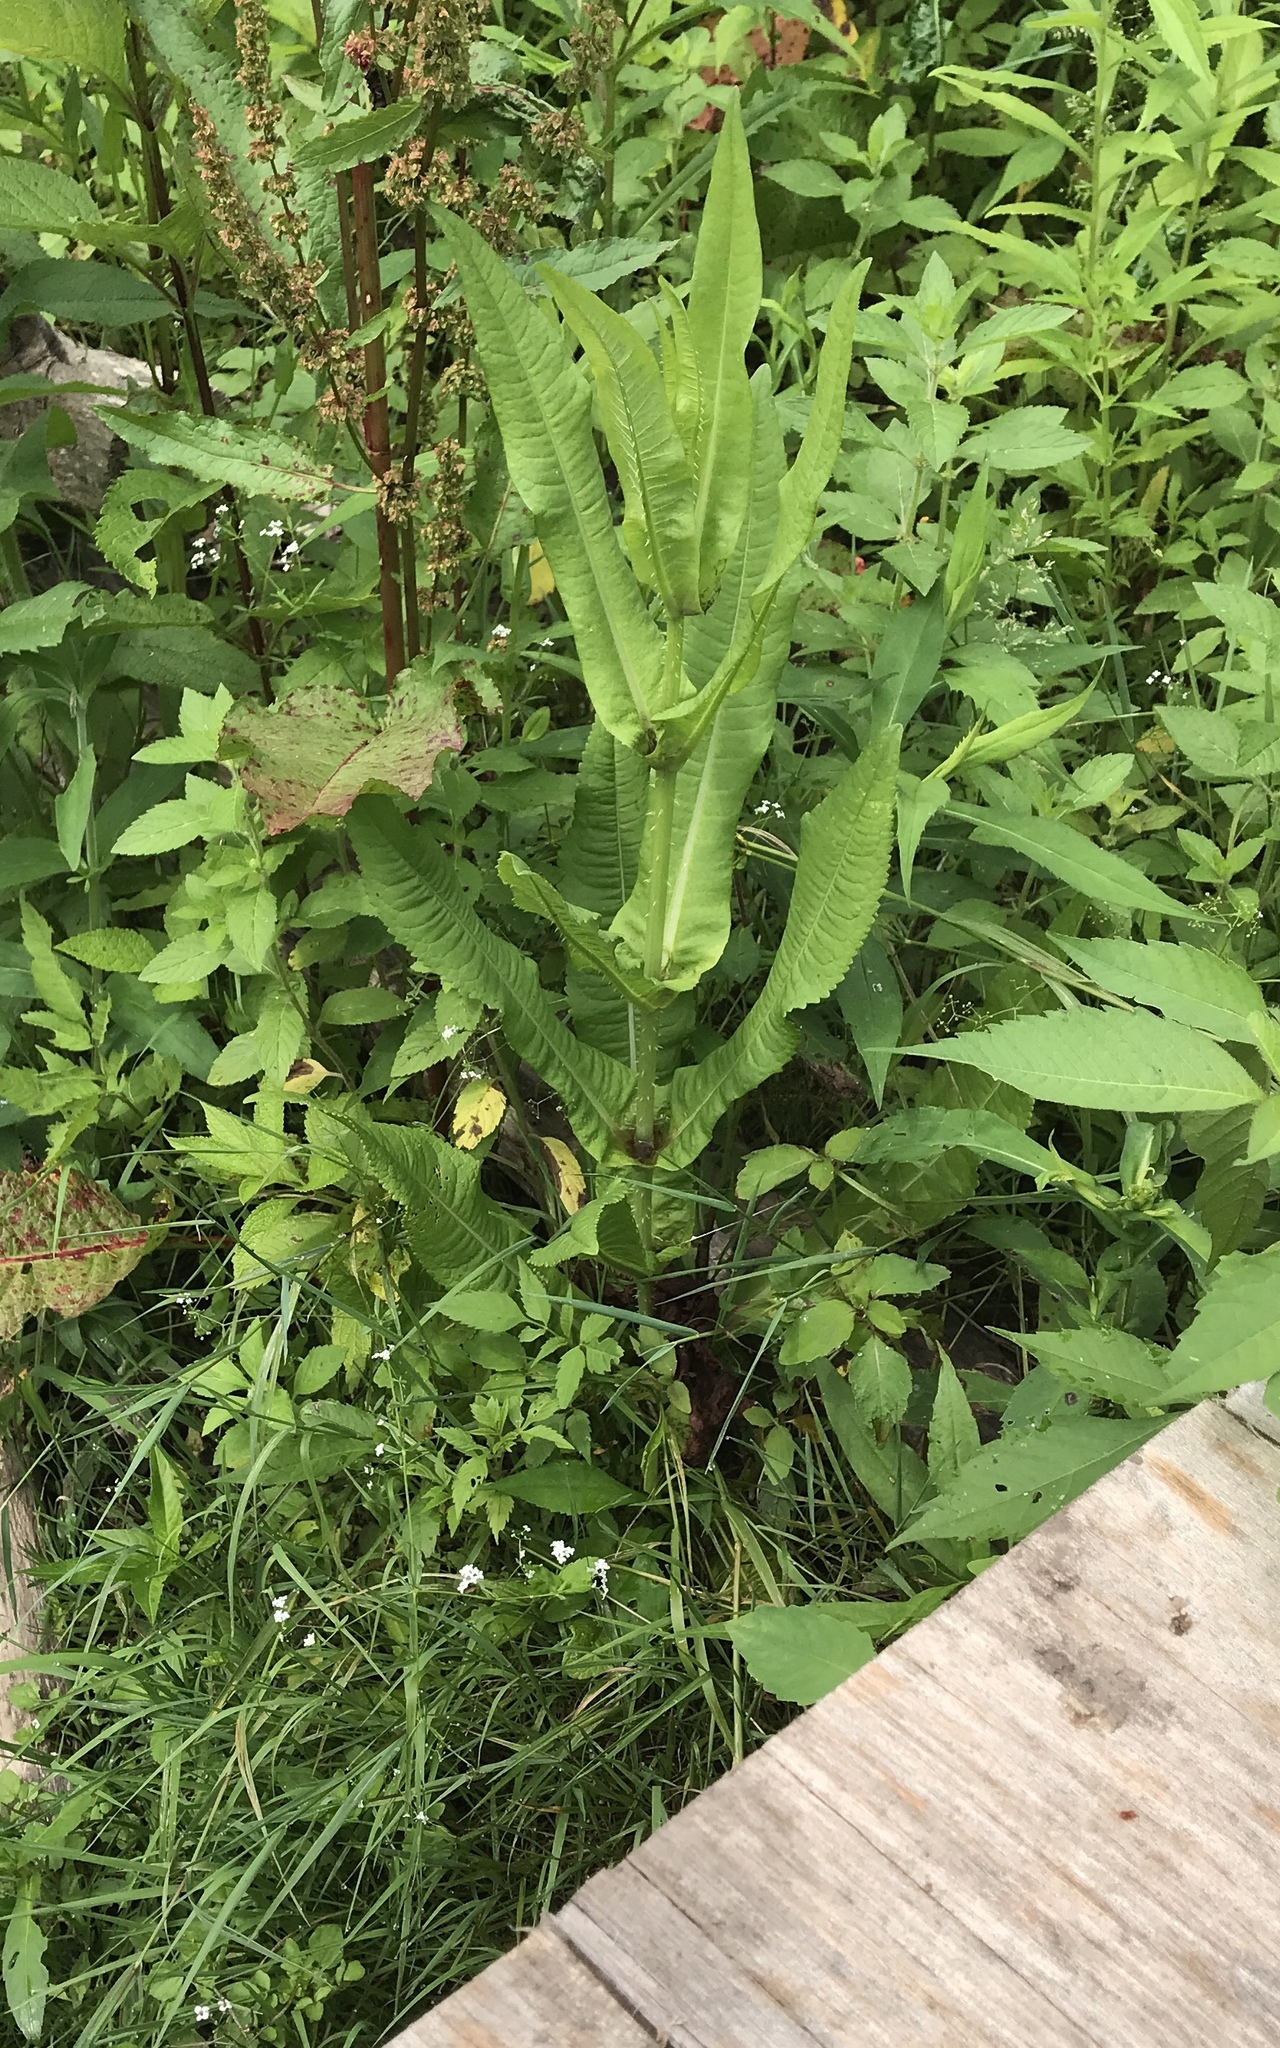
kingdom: Plantae
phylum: Tracheophyta
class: Magnoliopsida
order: Dipsacales
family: Caprifoliaceae
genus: Dipsacus
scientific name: Dipsacus fullonum
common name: Teasel
